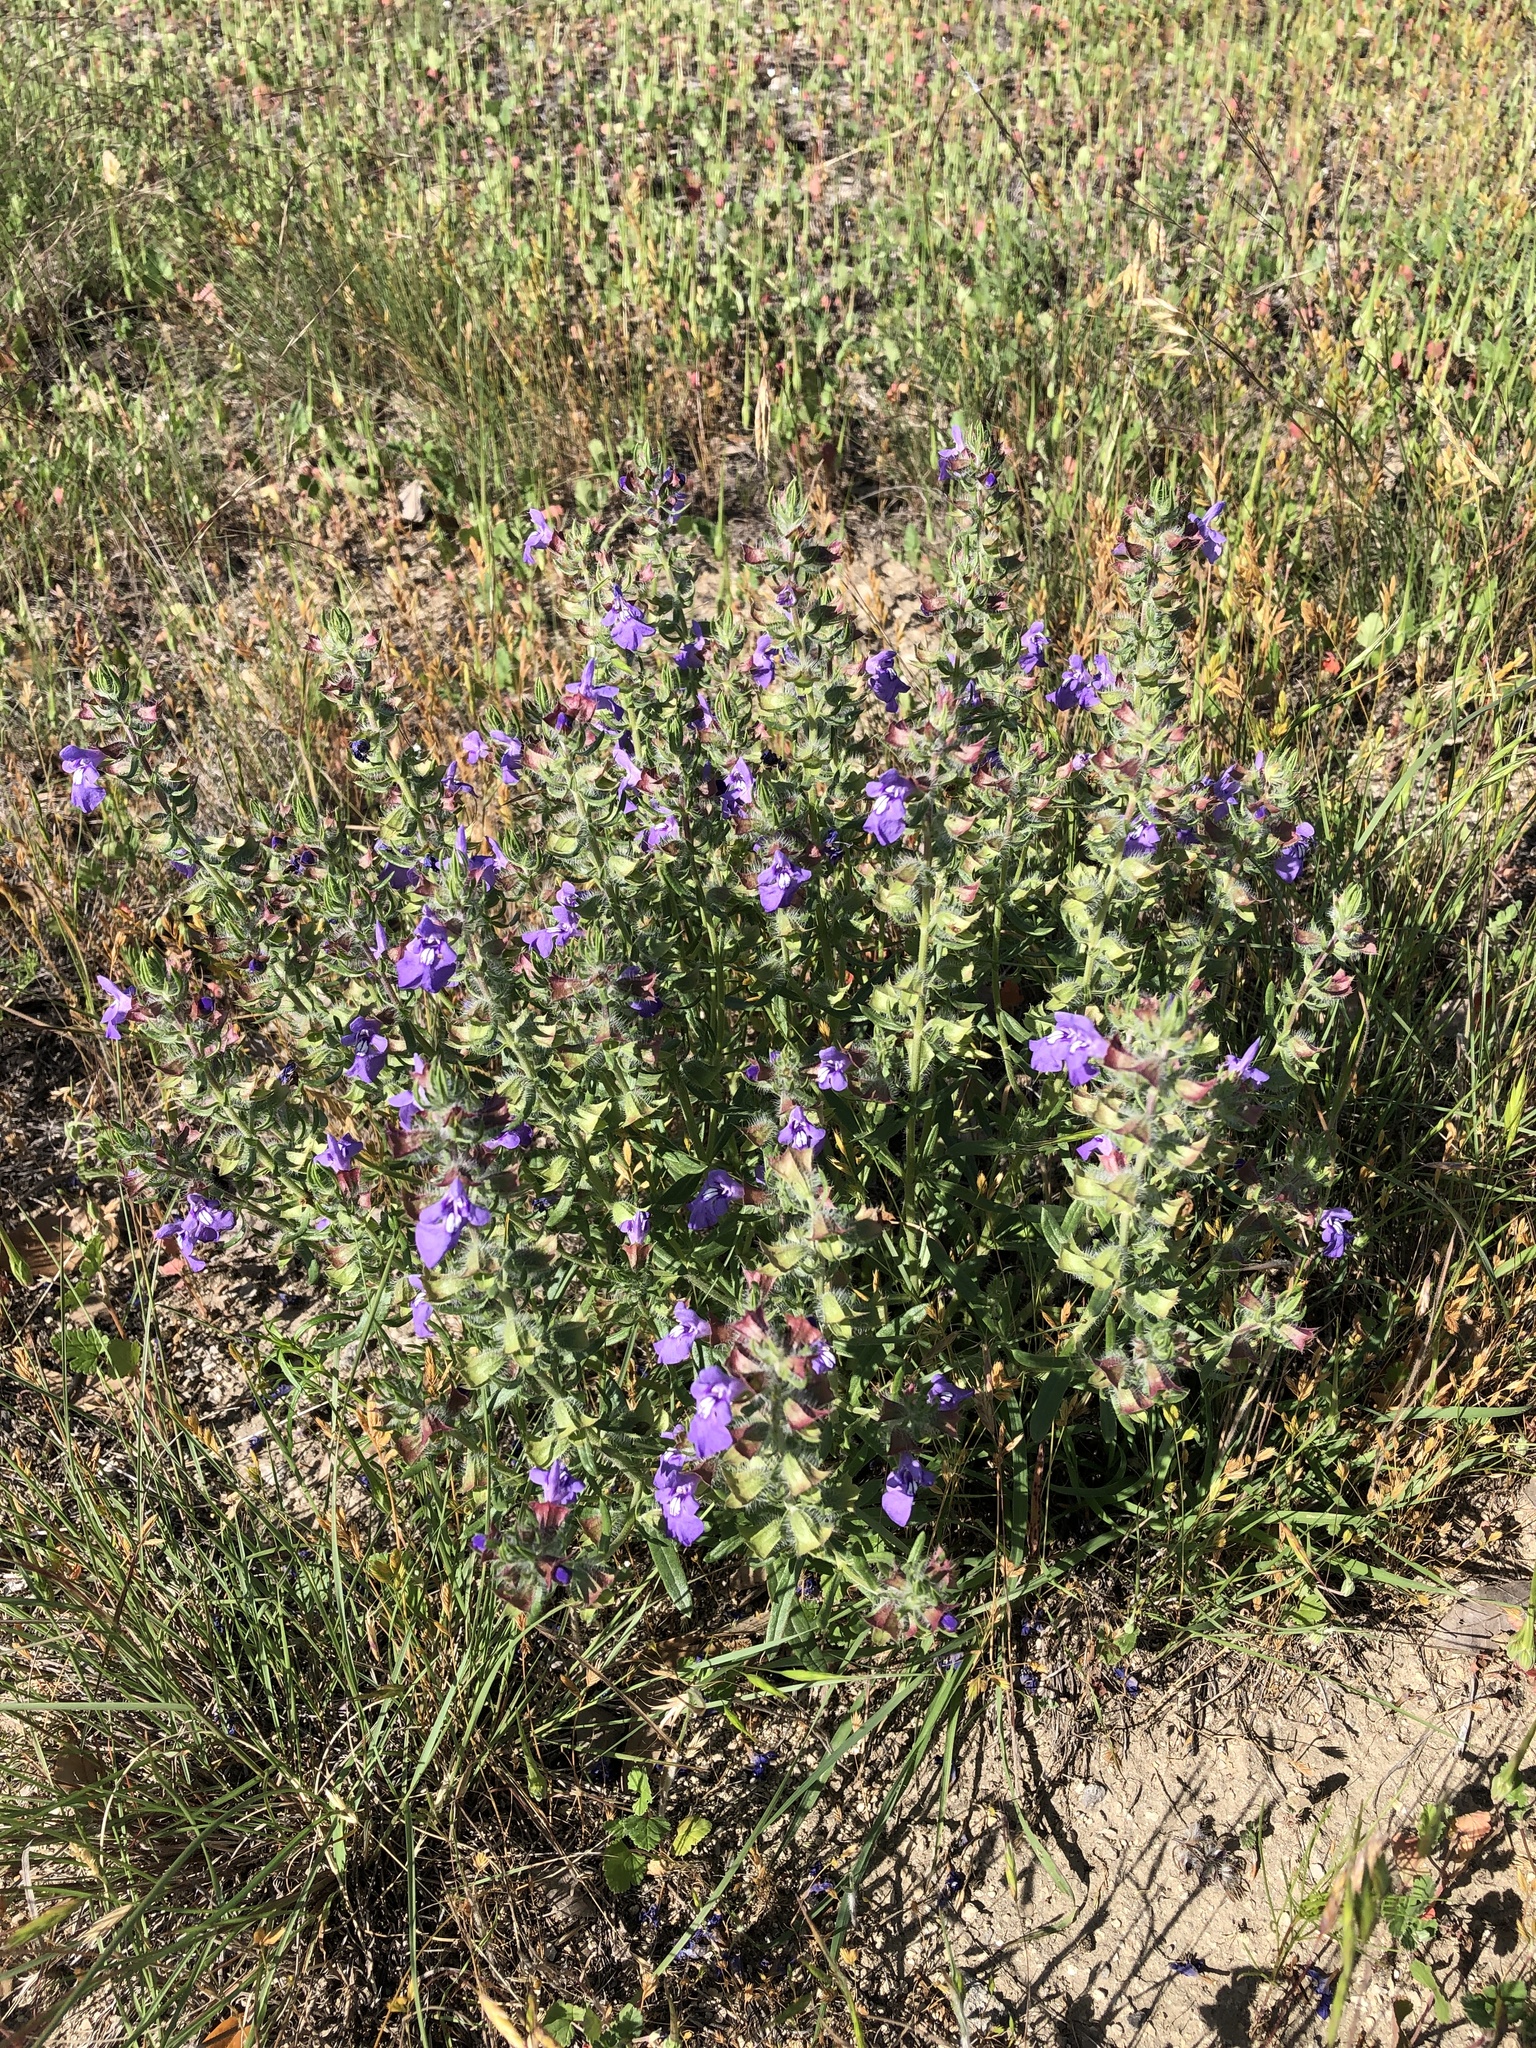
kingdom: Plantae
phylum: Tracheophyta
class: Magnoliopsida
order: Lamiales
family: Lamiaceae
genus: Salvia
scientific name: Salvia texana
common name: Texas sage
